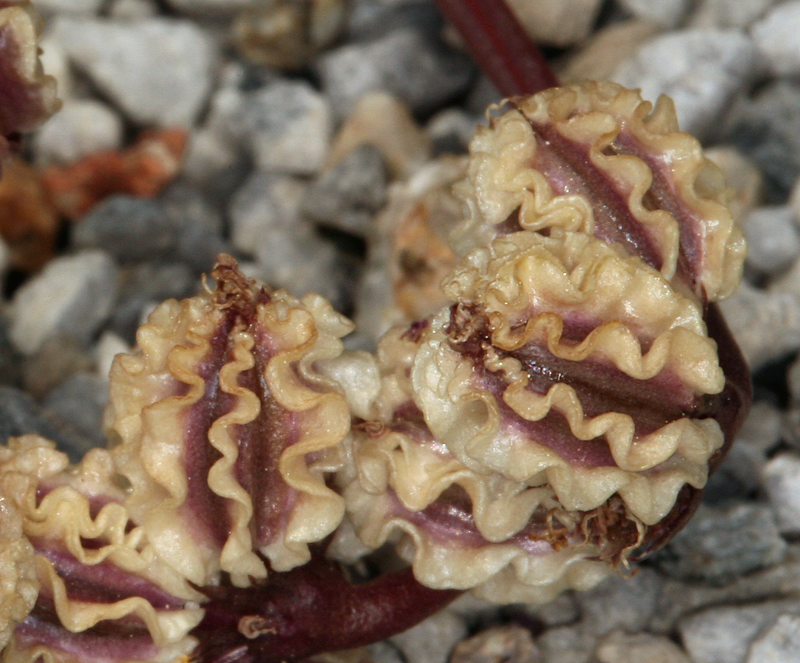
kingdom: Plantae
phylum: Tracheophyta
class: Magnoliopsida
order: Apiales
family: Apiaceae
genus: Aulospermum
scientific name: Aulospermum cinerarium
